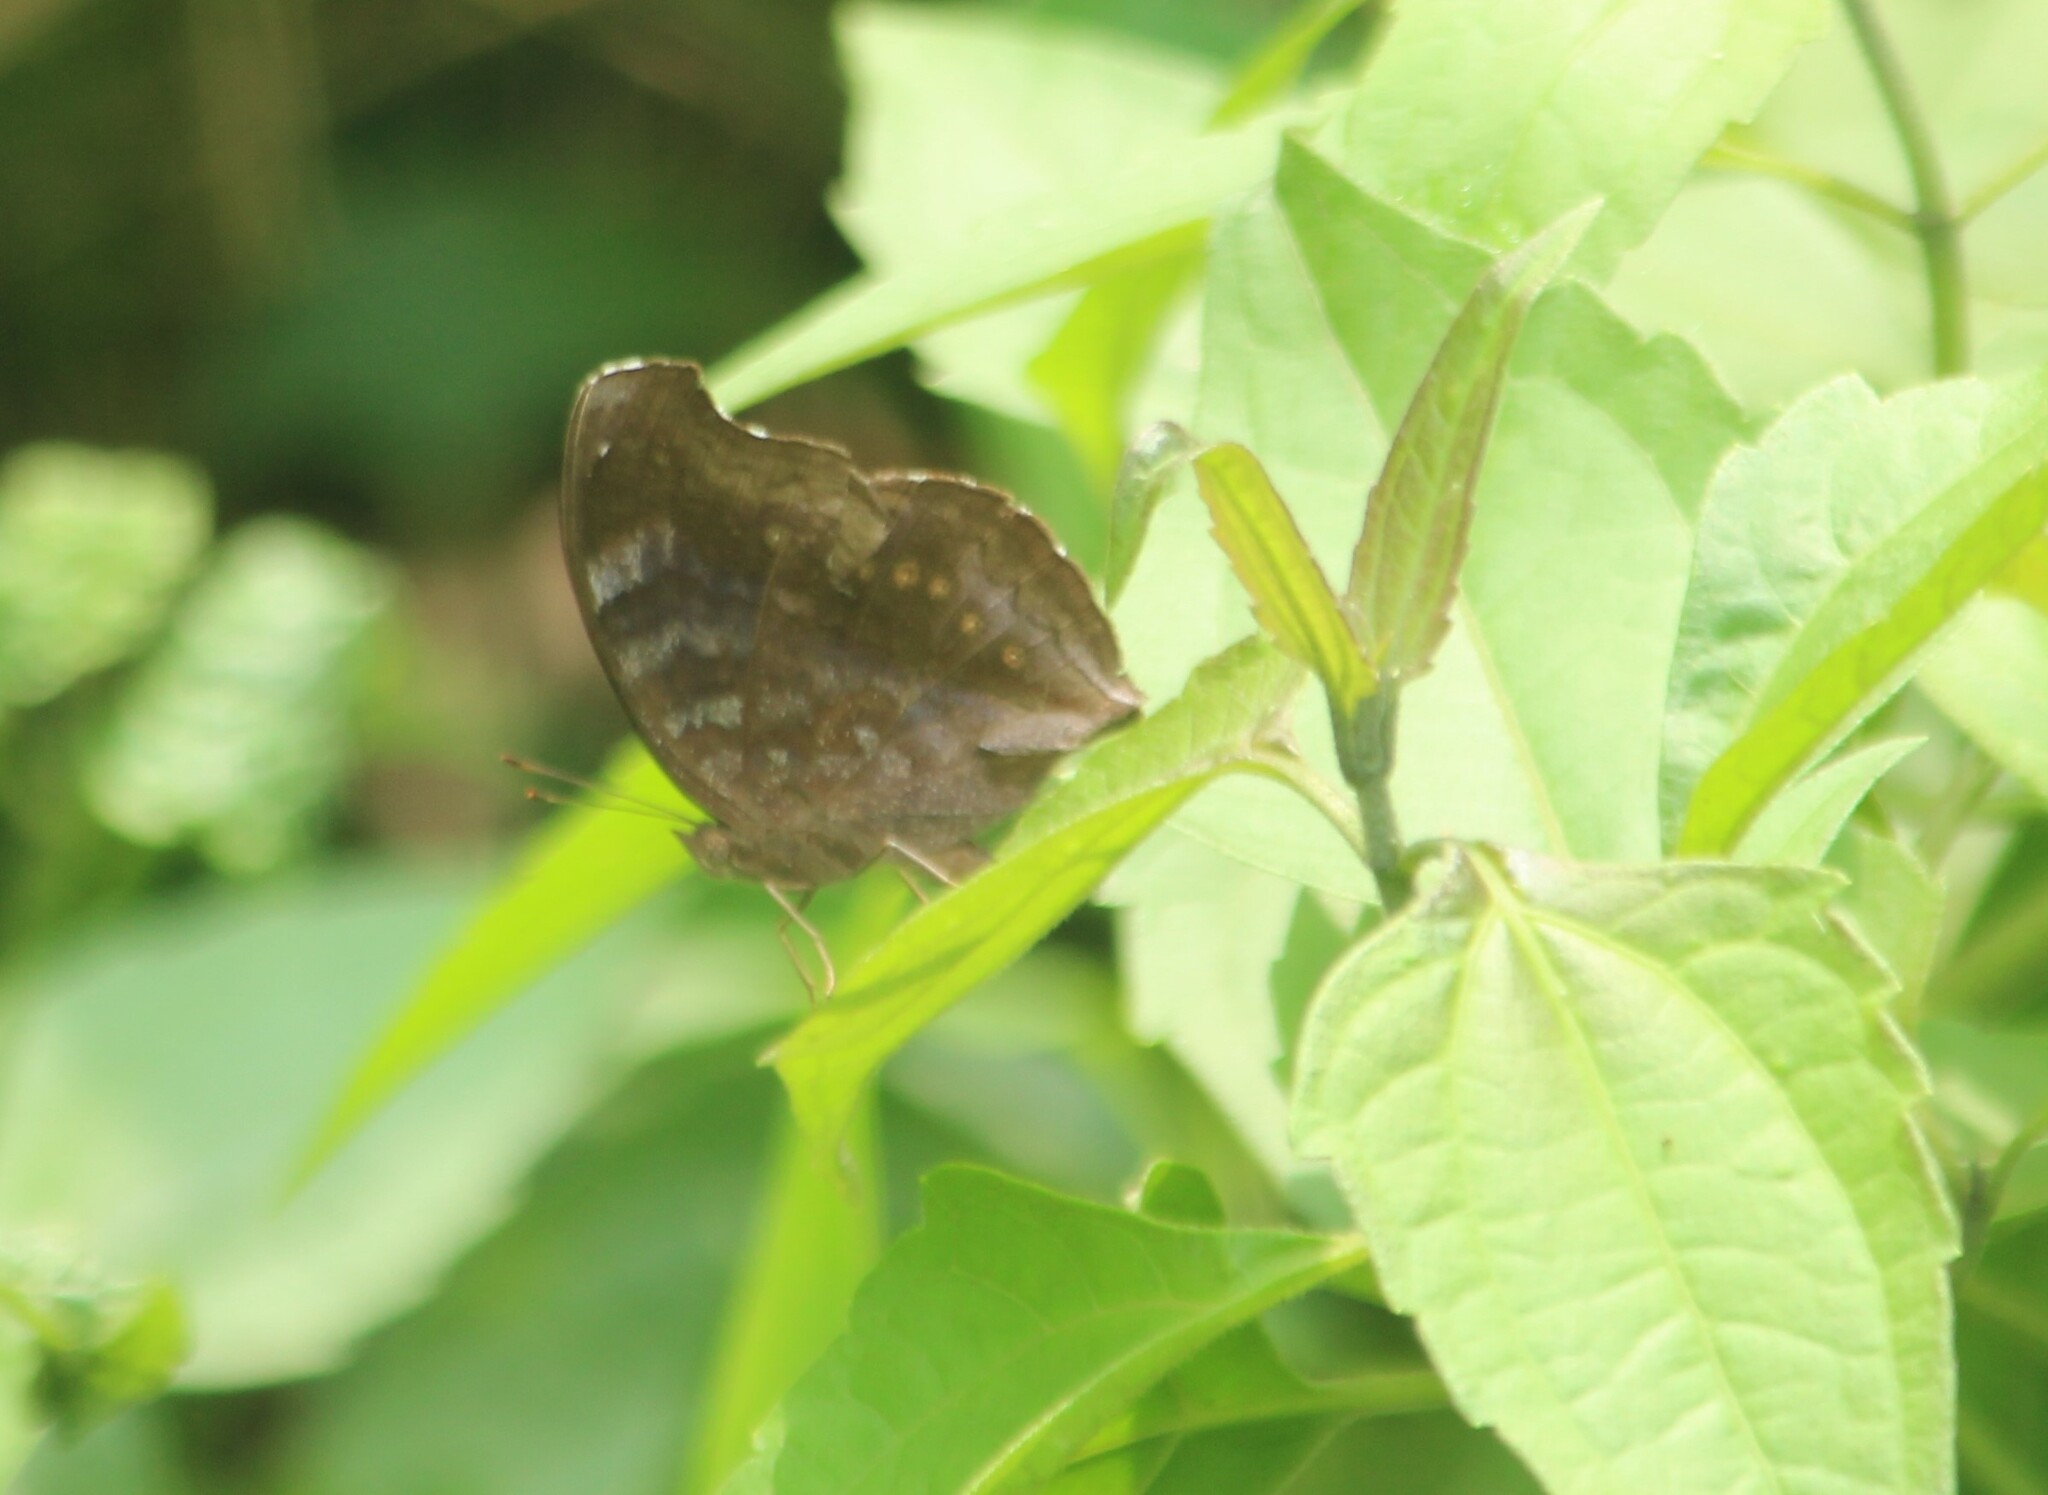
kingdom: Animalia
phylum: Arthropoda
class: Insecta
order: Lepidoptera
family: Nymphalidae
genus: Junonia
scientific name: Junonia iphita
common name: Chocolate pansy
